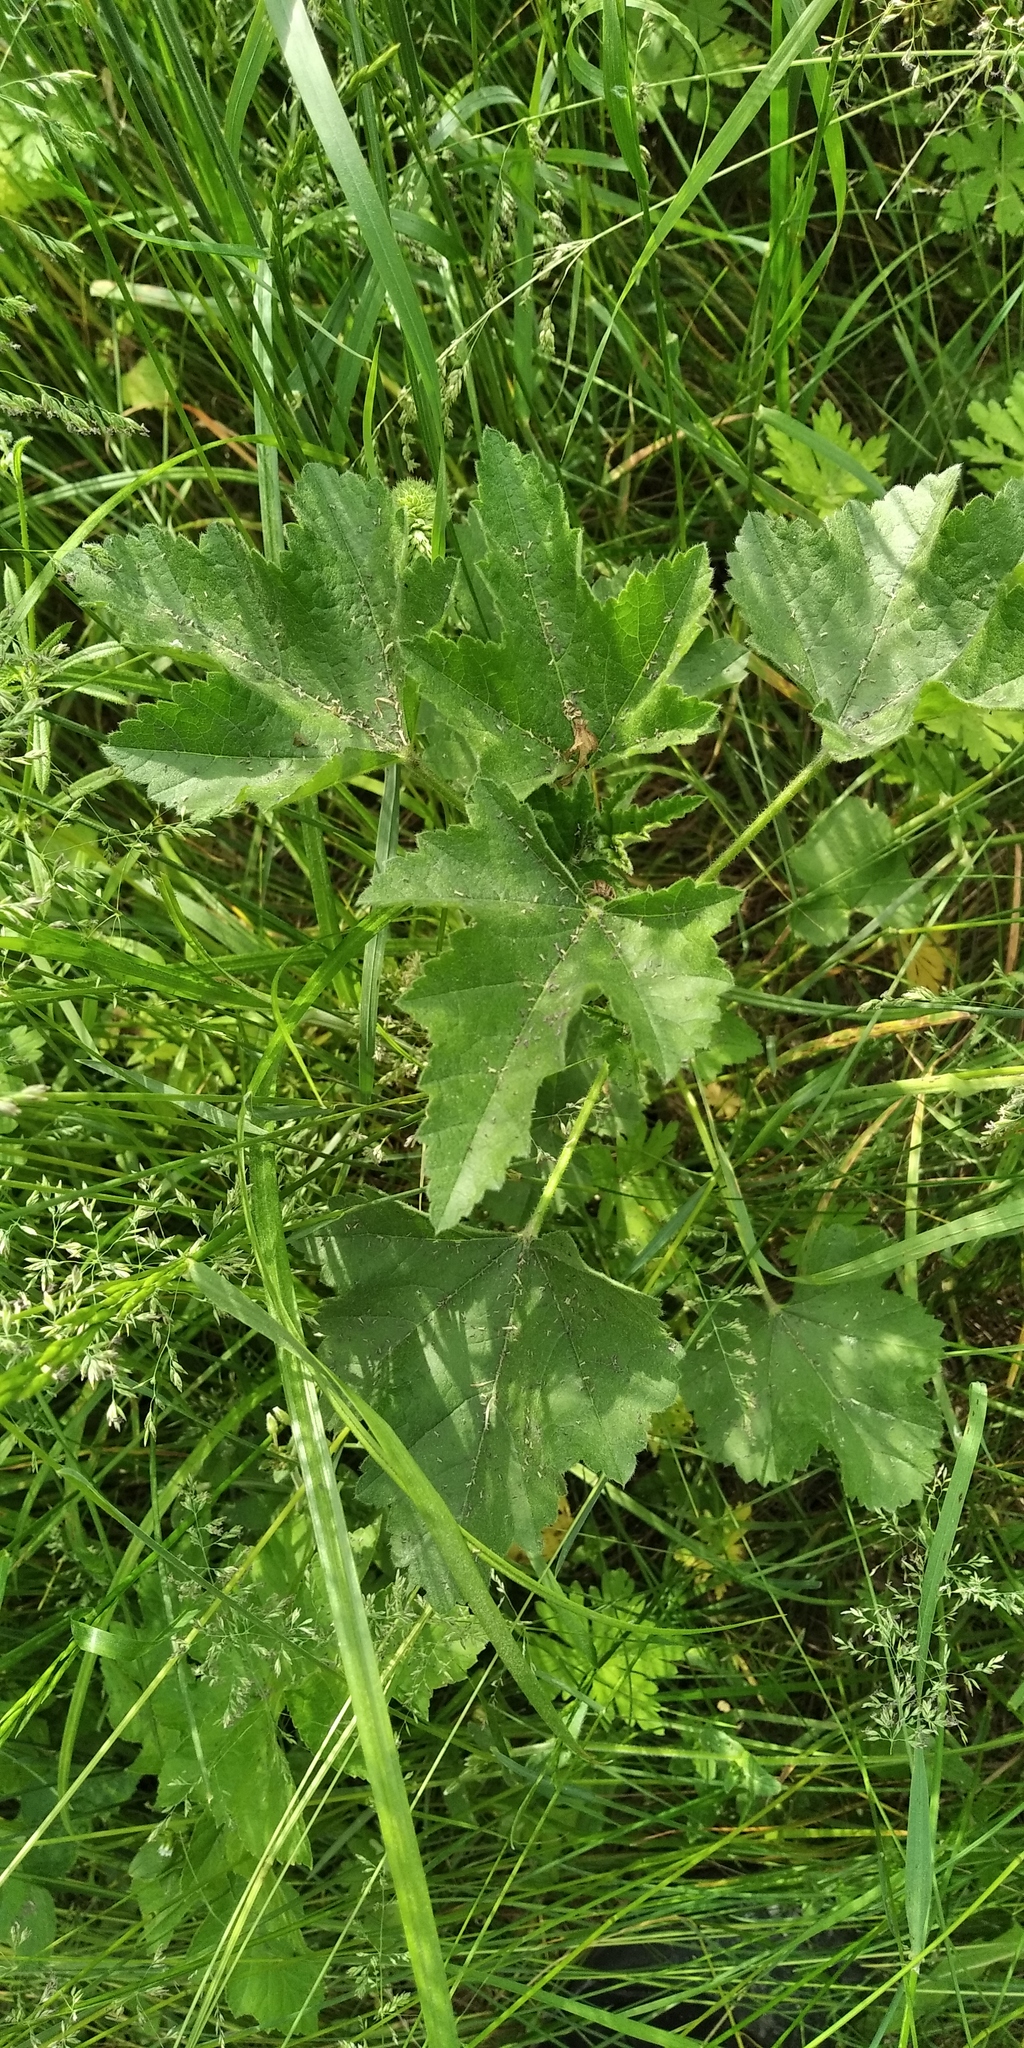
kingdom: Plantae
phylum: Tracheophyta
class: Magnoliopsida
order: Malvales
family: Malvaceae
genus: Malva
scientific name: Malva thuringiaca
